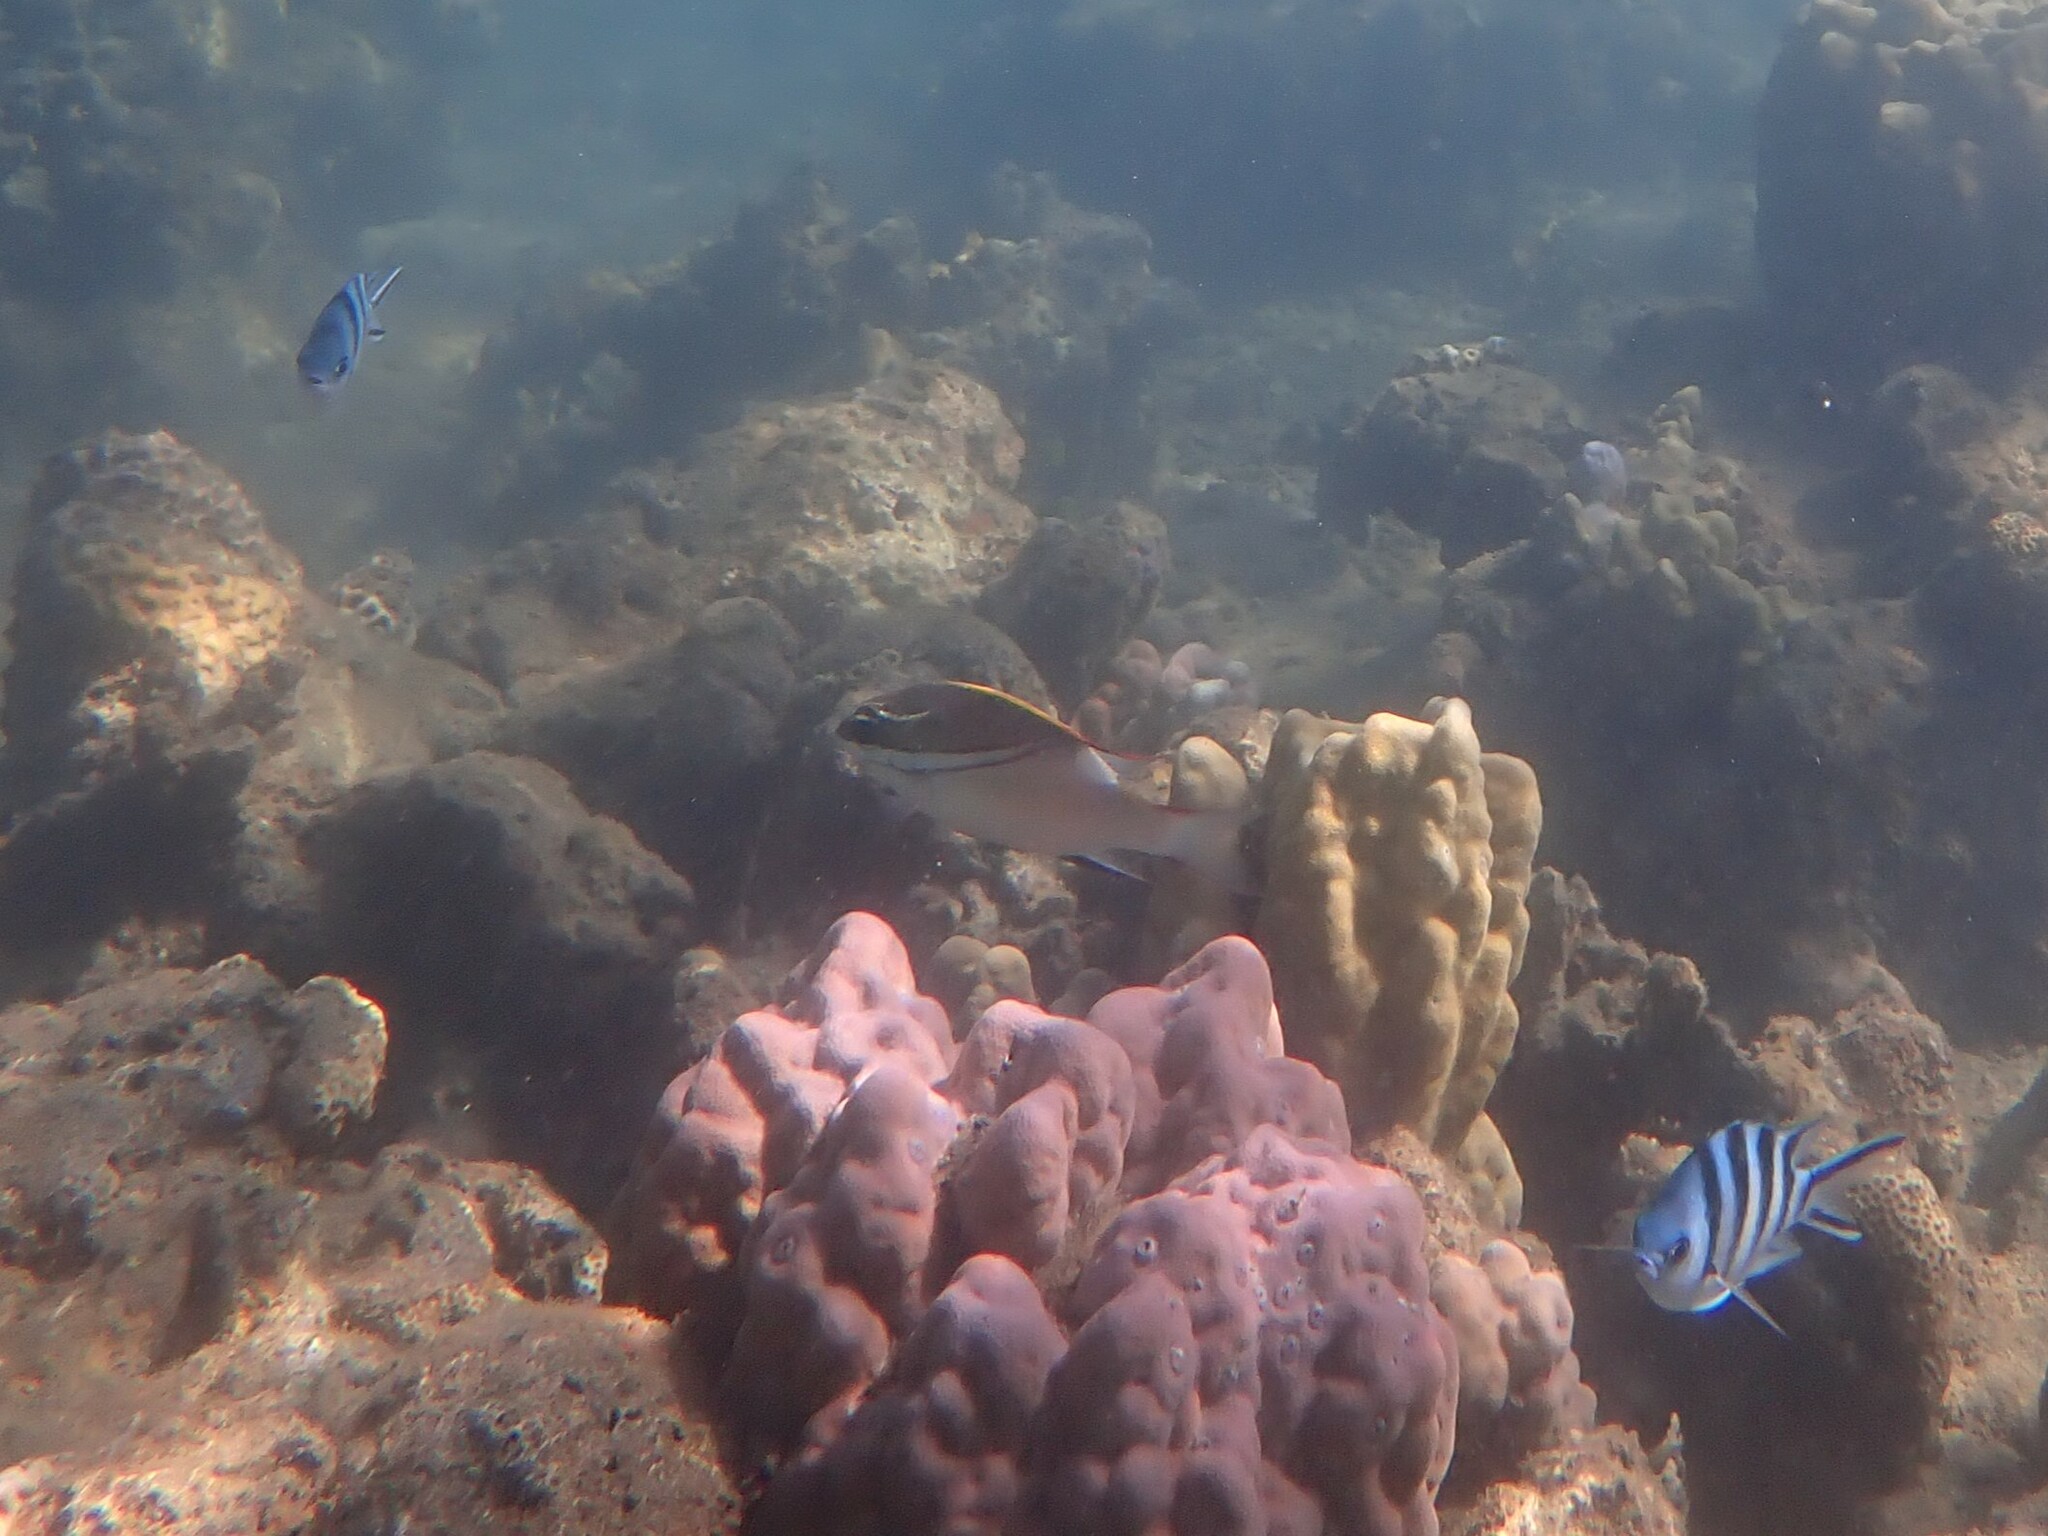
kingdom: Animalia
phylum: Chordata
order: Perciformes
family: Nemipteridae
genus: Scolopsis
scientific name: Scolopsis bilineata
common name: Two-lined monocle bream
